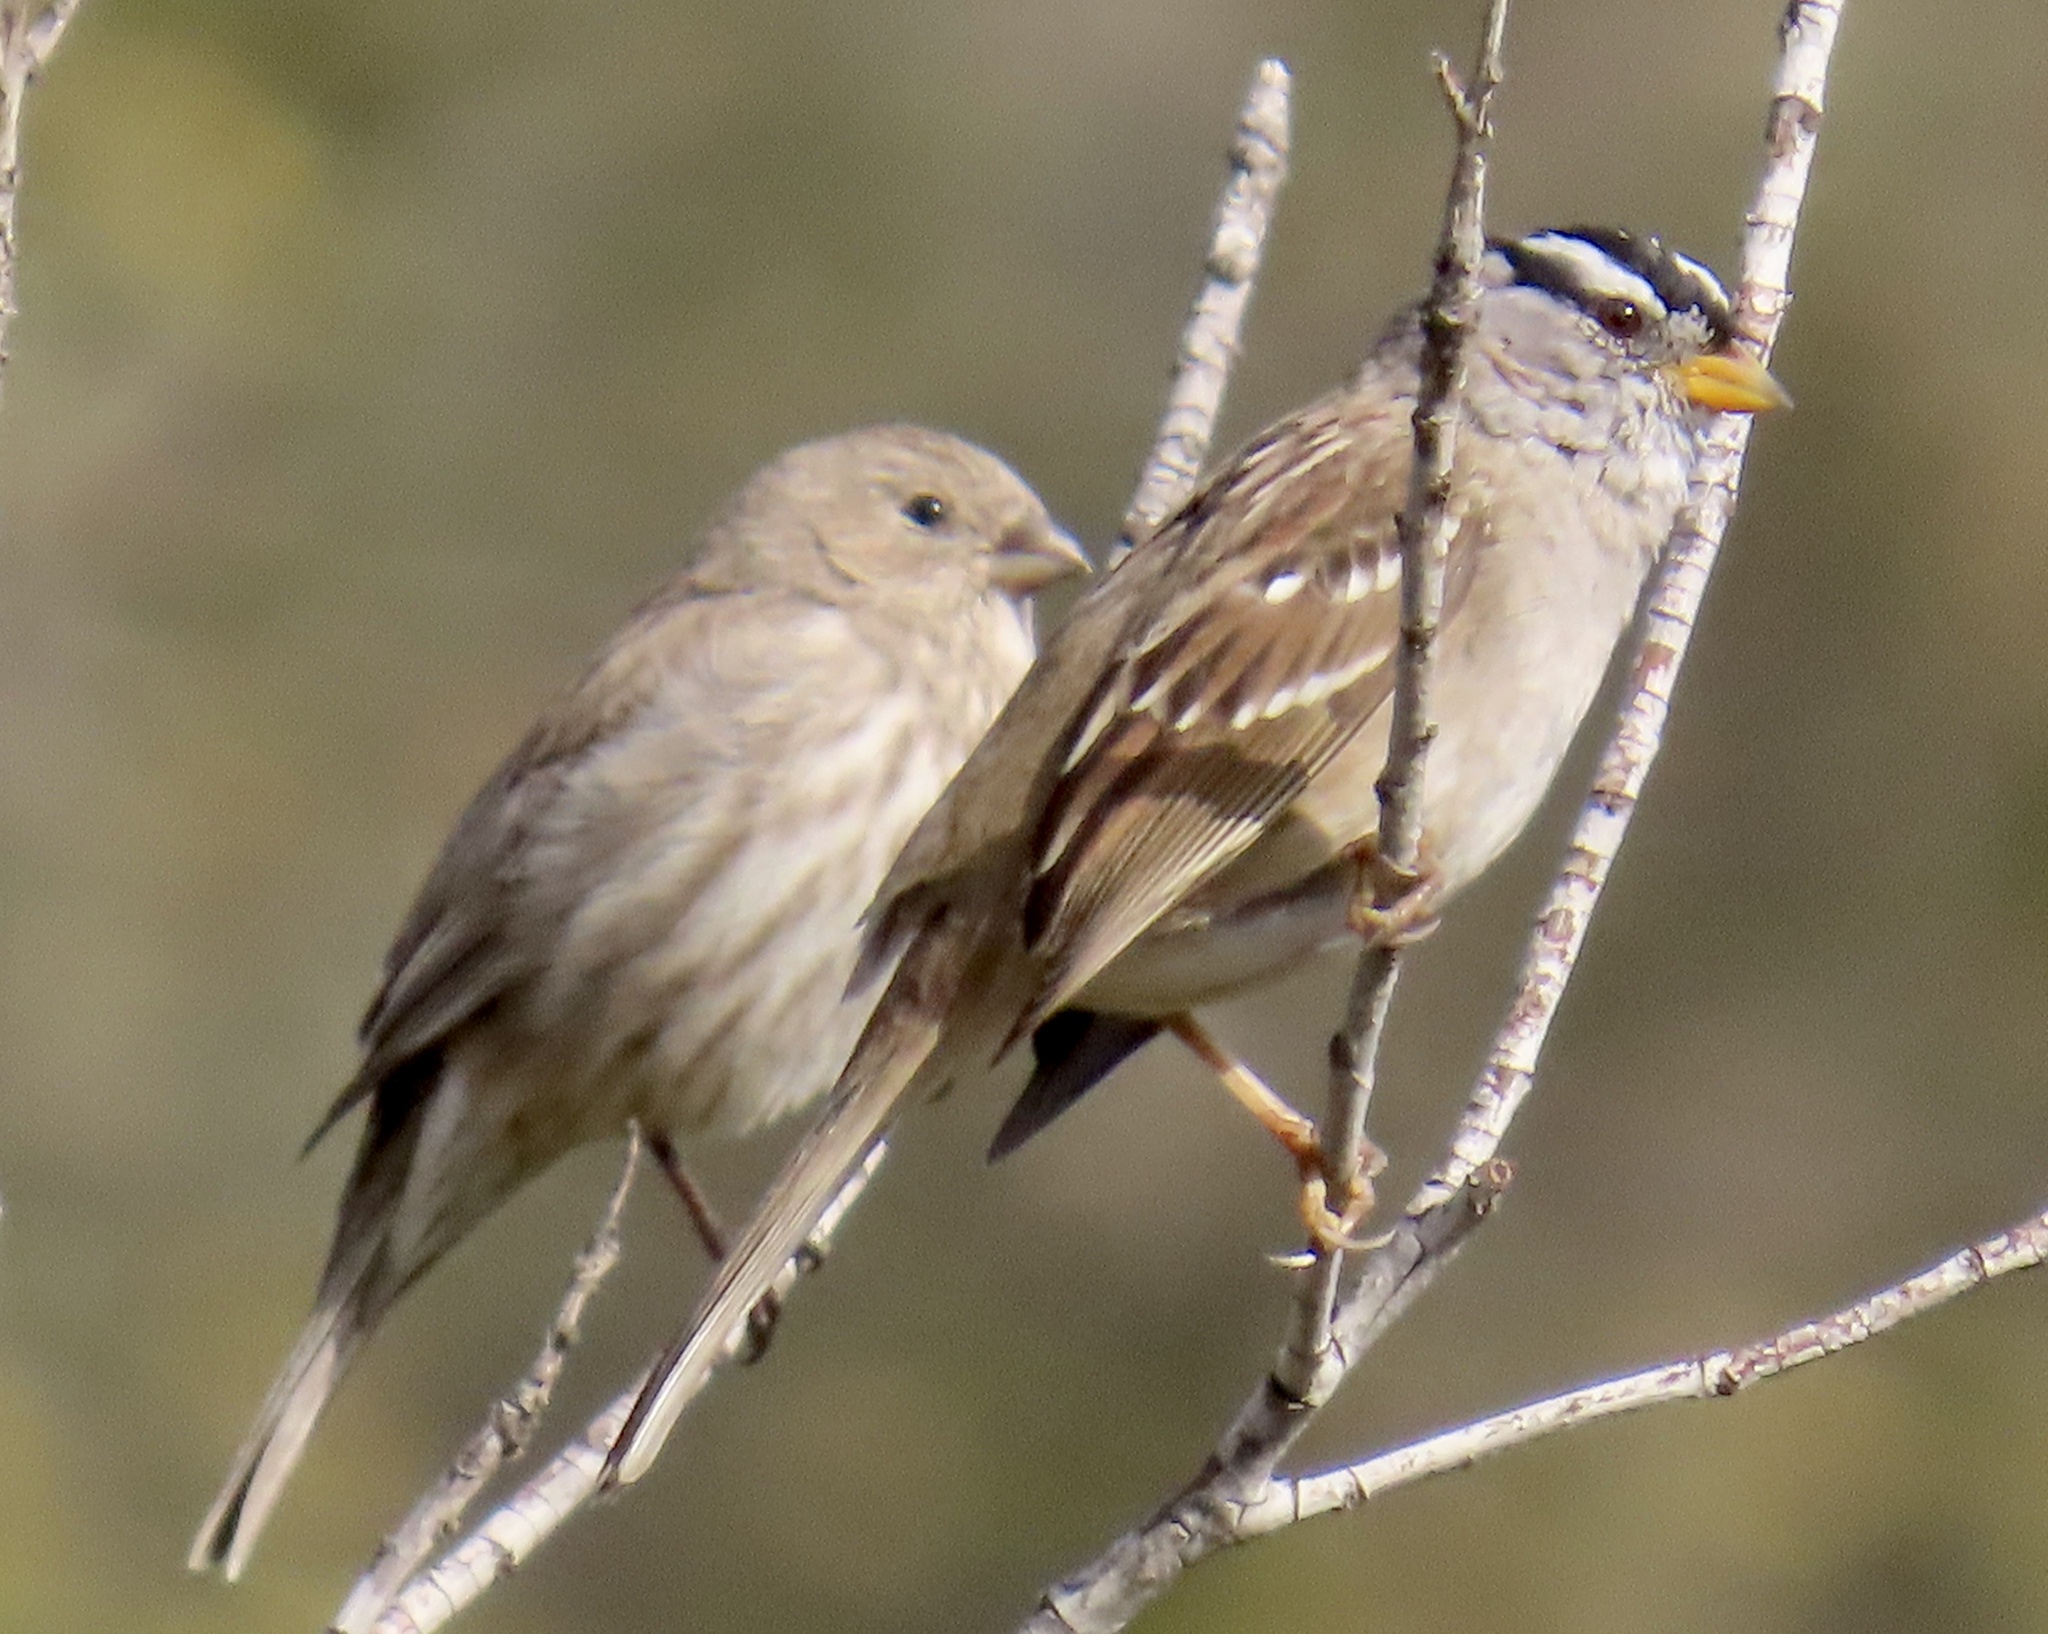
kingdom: Animalia
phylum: Chordata
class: Aves
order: Passeriformes
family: Passerellidae
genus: Zonotrichia
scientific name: Zonotrichia leucophrys
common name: White-crowned sparrow
